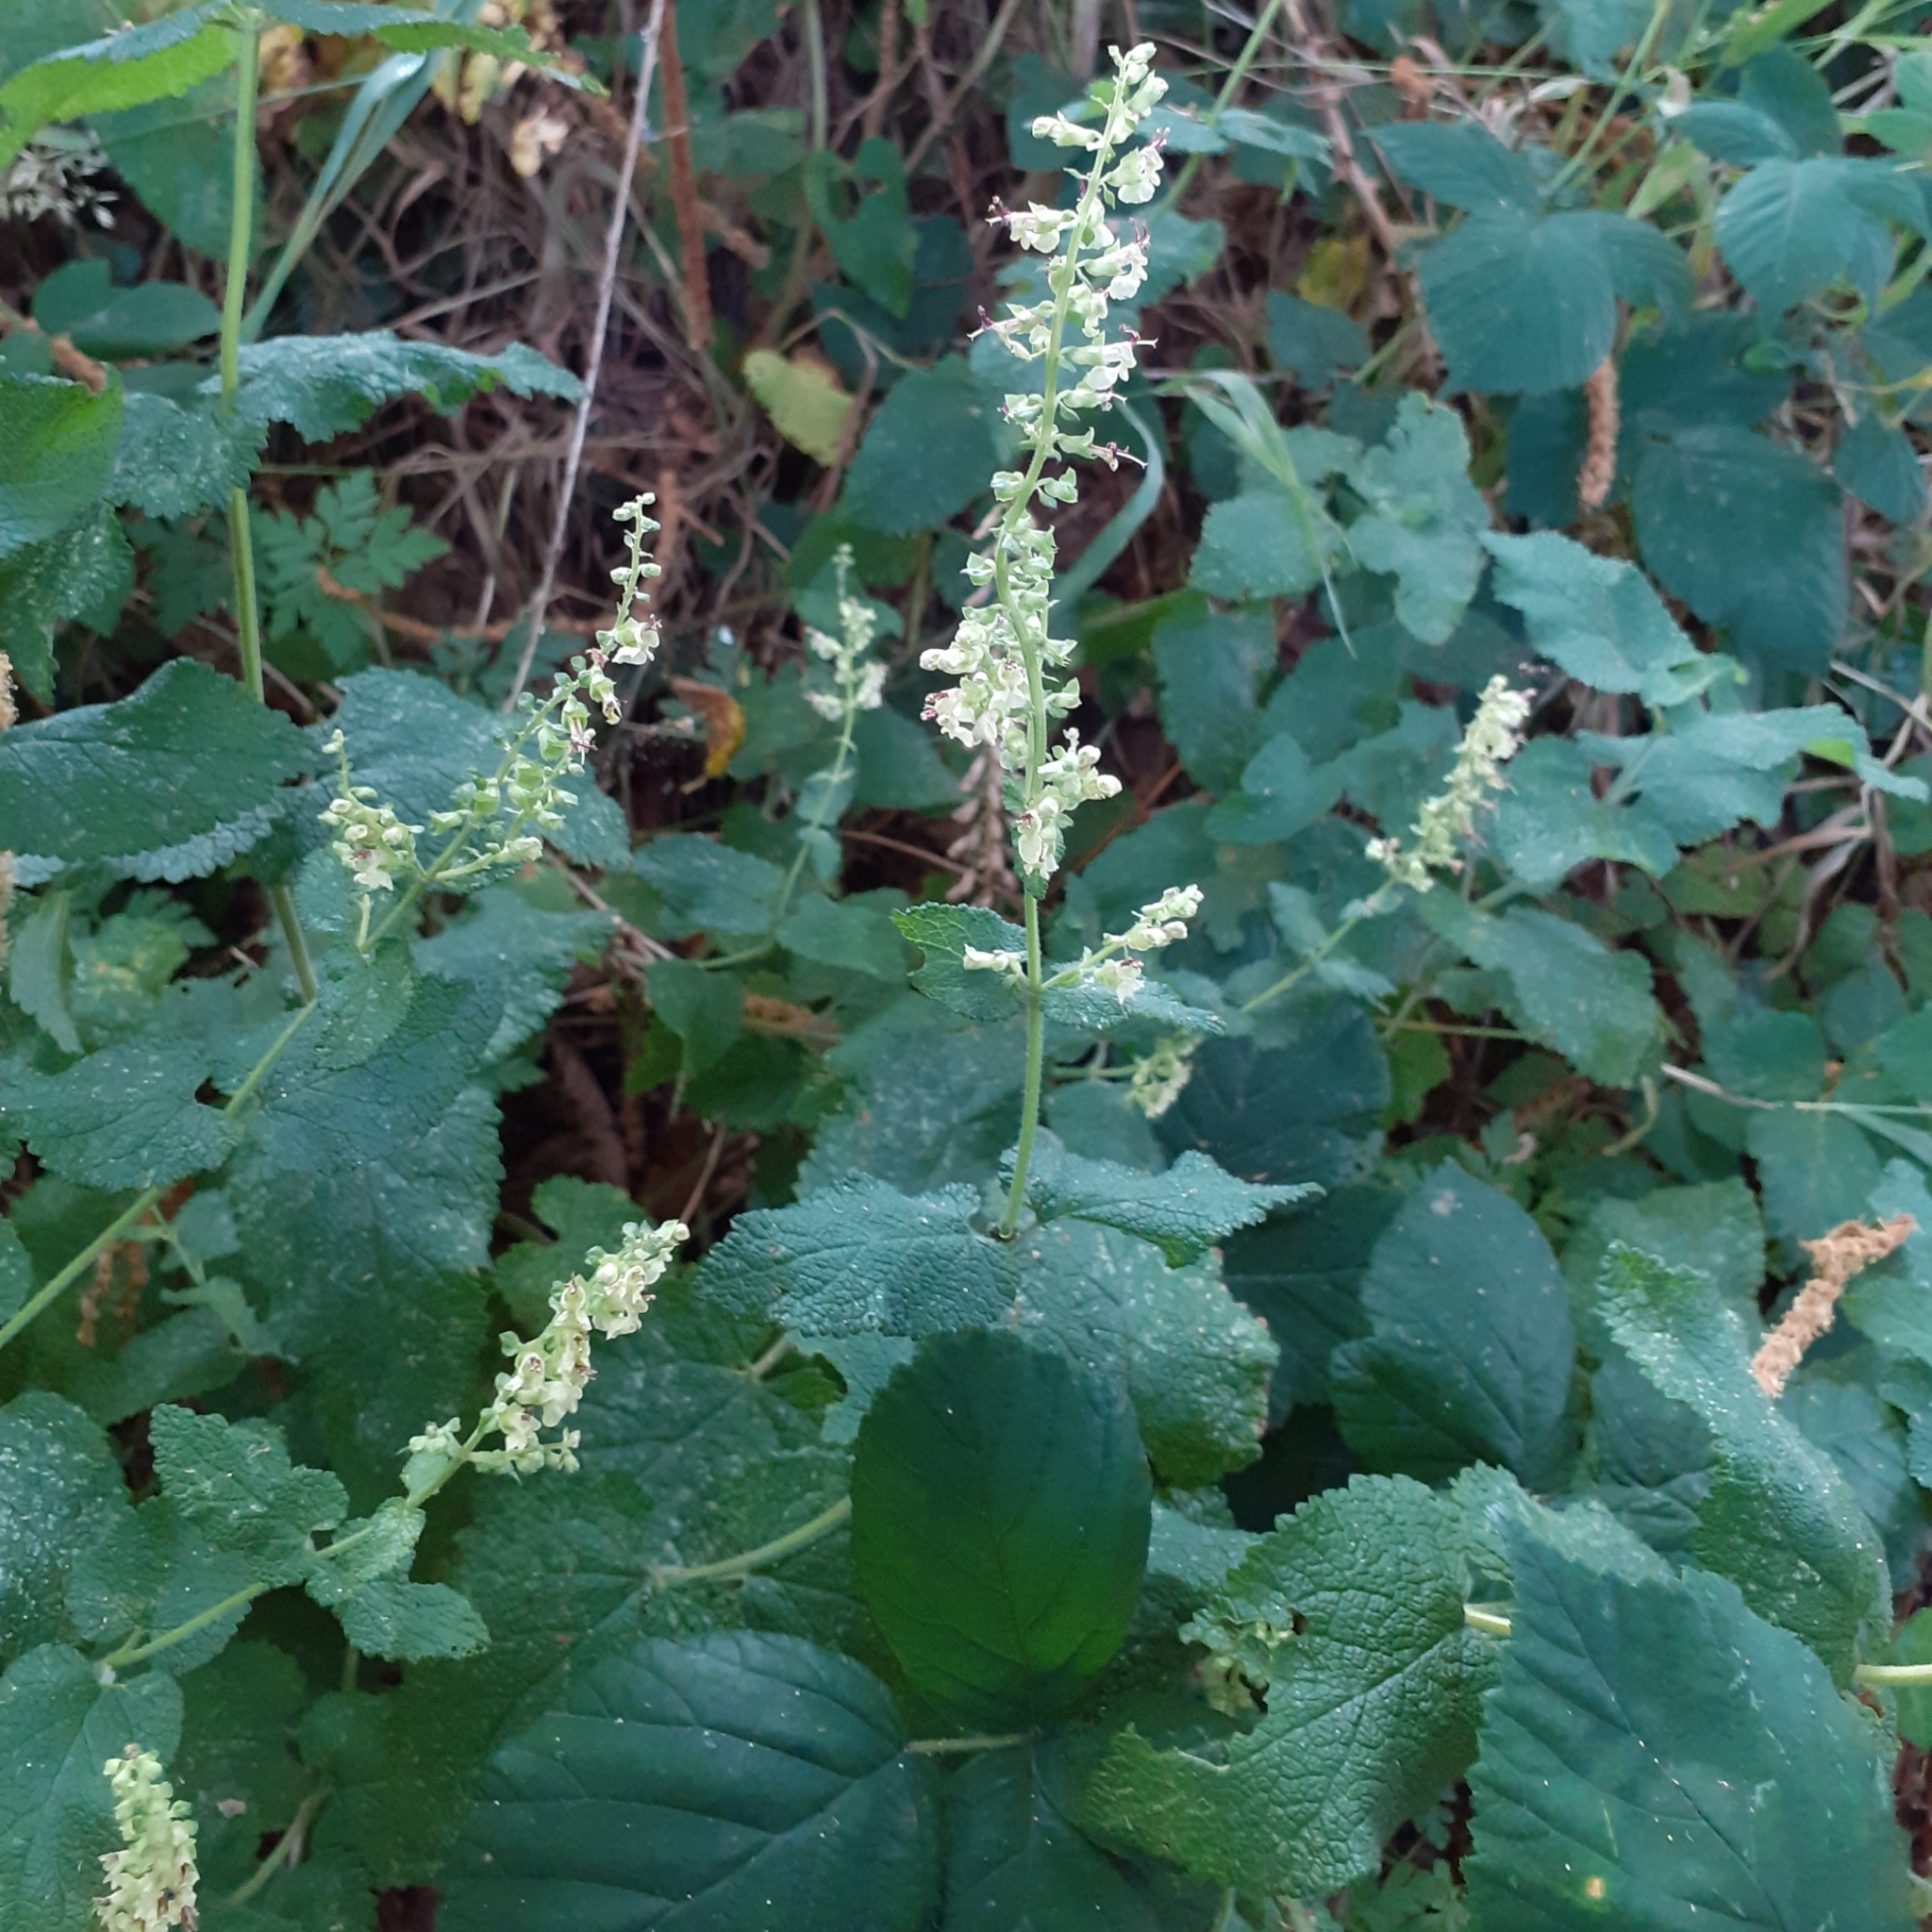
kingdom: Plantae
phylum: Tracheophyta
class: Magnoliopsida
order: Lamiales
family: Lamiaceae
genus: Teucrium
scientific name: Teucrium scorodonia
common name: Woodland germander
